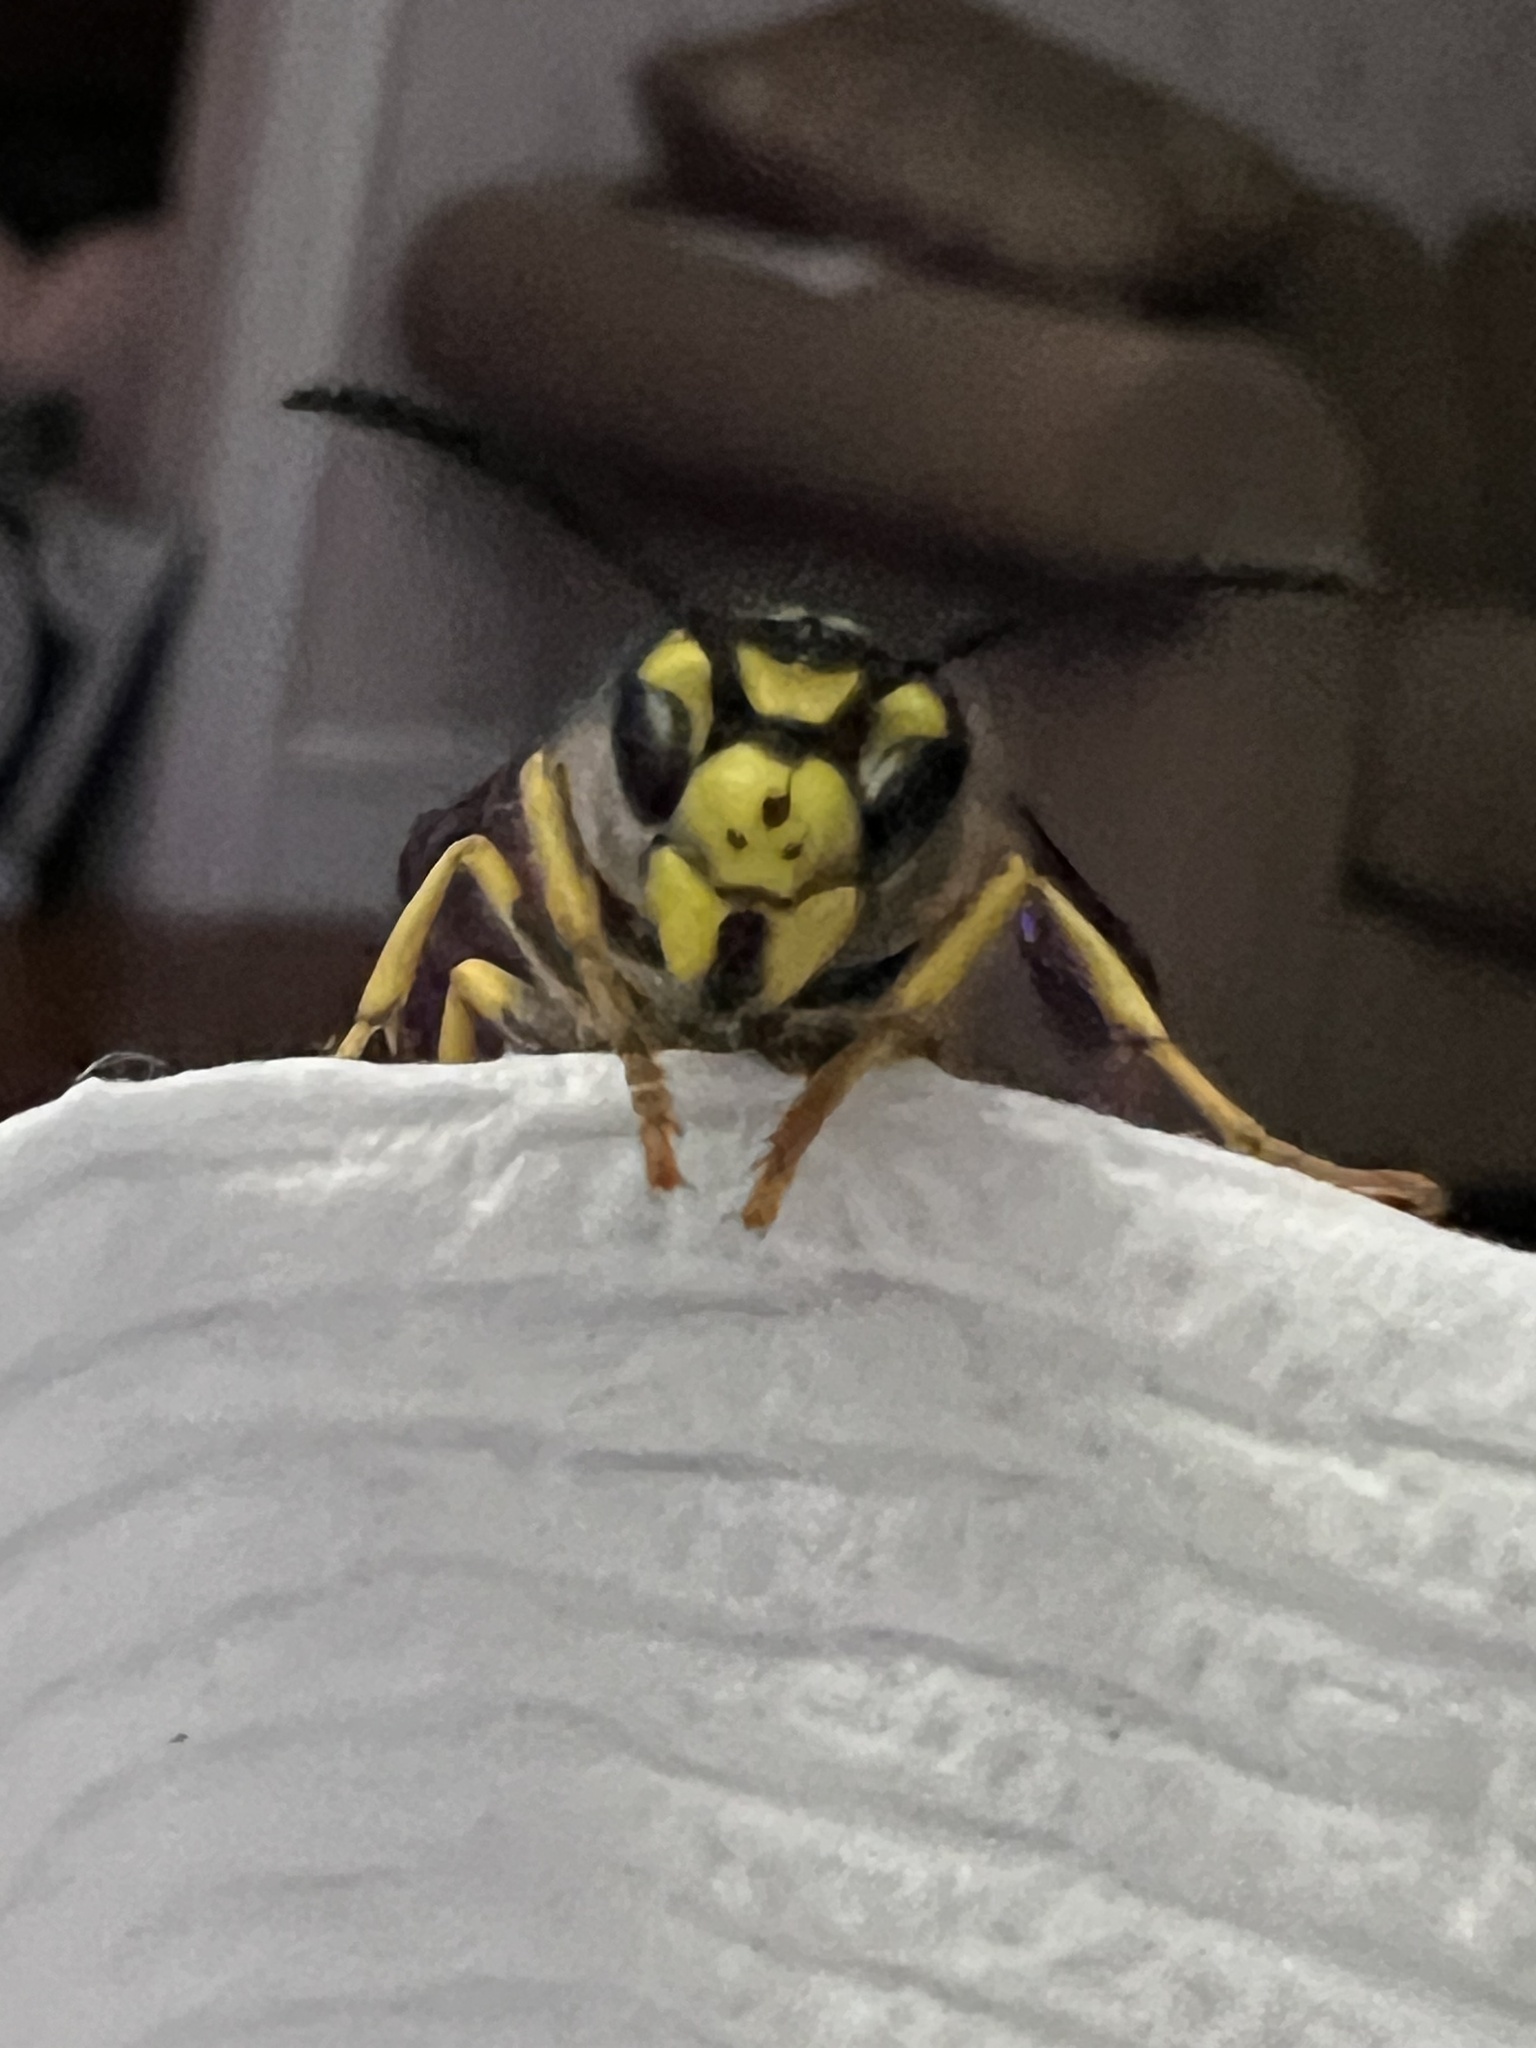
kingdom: Animalia
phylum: Arthropoda
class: Insecta
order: Hymenoptera
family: Vespidae
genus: Vespula
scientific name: Vespula germanica
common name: German wasp
